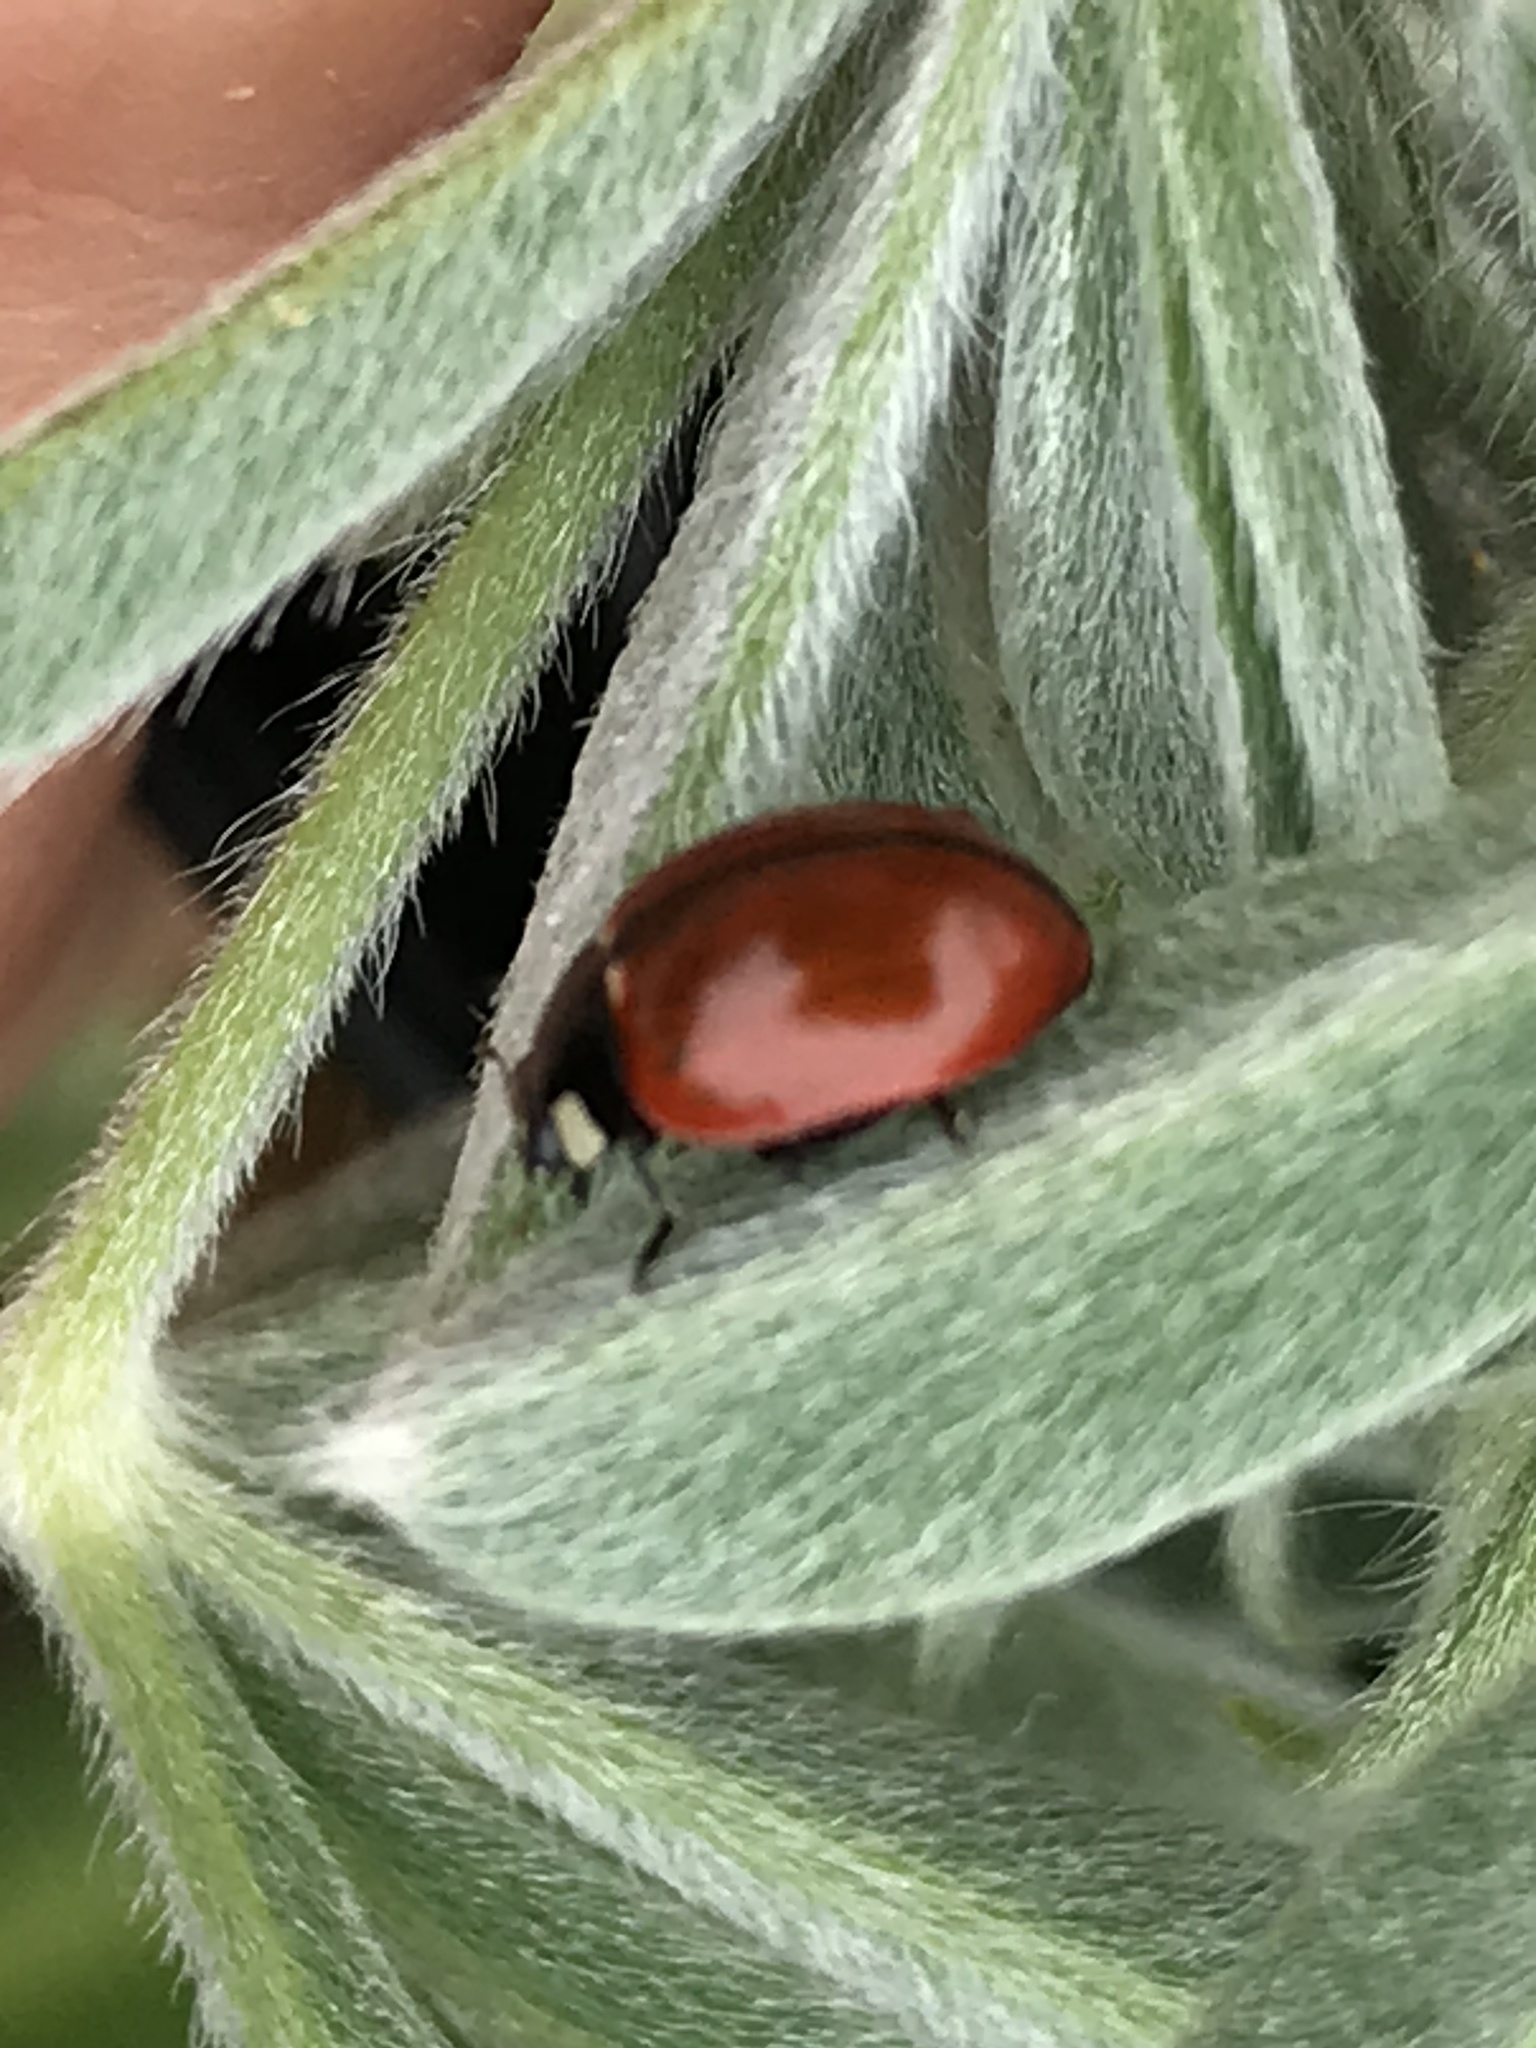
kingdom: Animalia
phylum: Arthropoda
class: Insecta
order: Coleoptera
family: Coccinellidae
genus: Coccinella
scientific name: Coccinella californica
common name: Lady beetle
